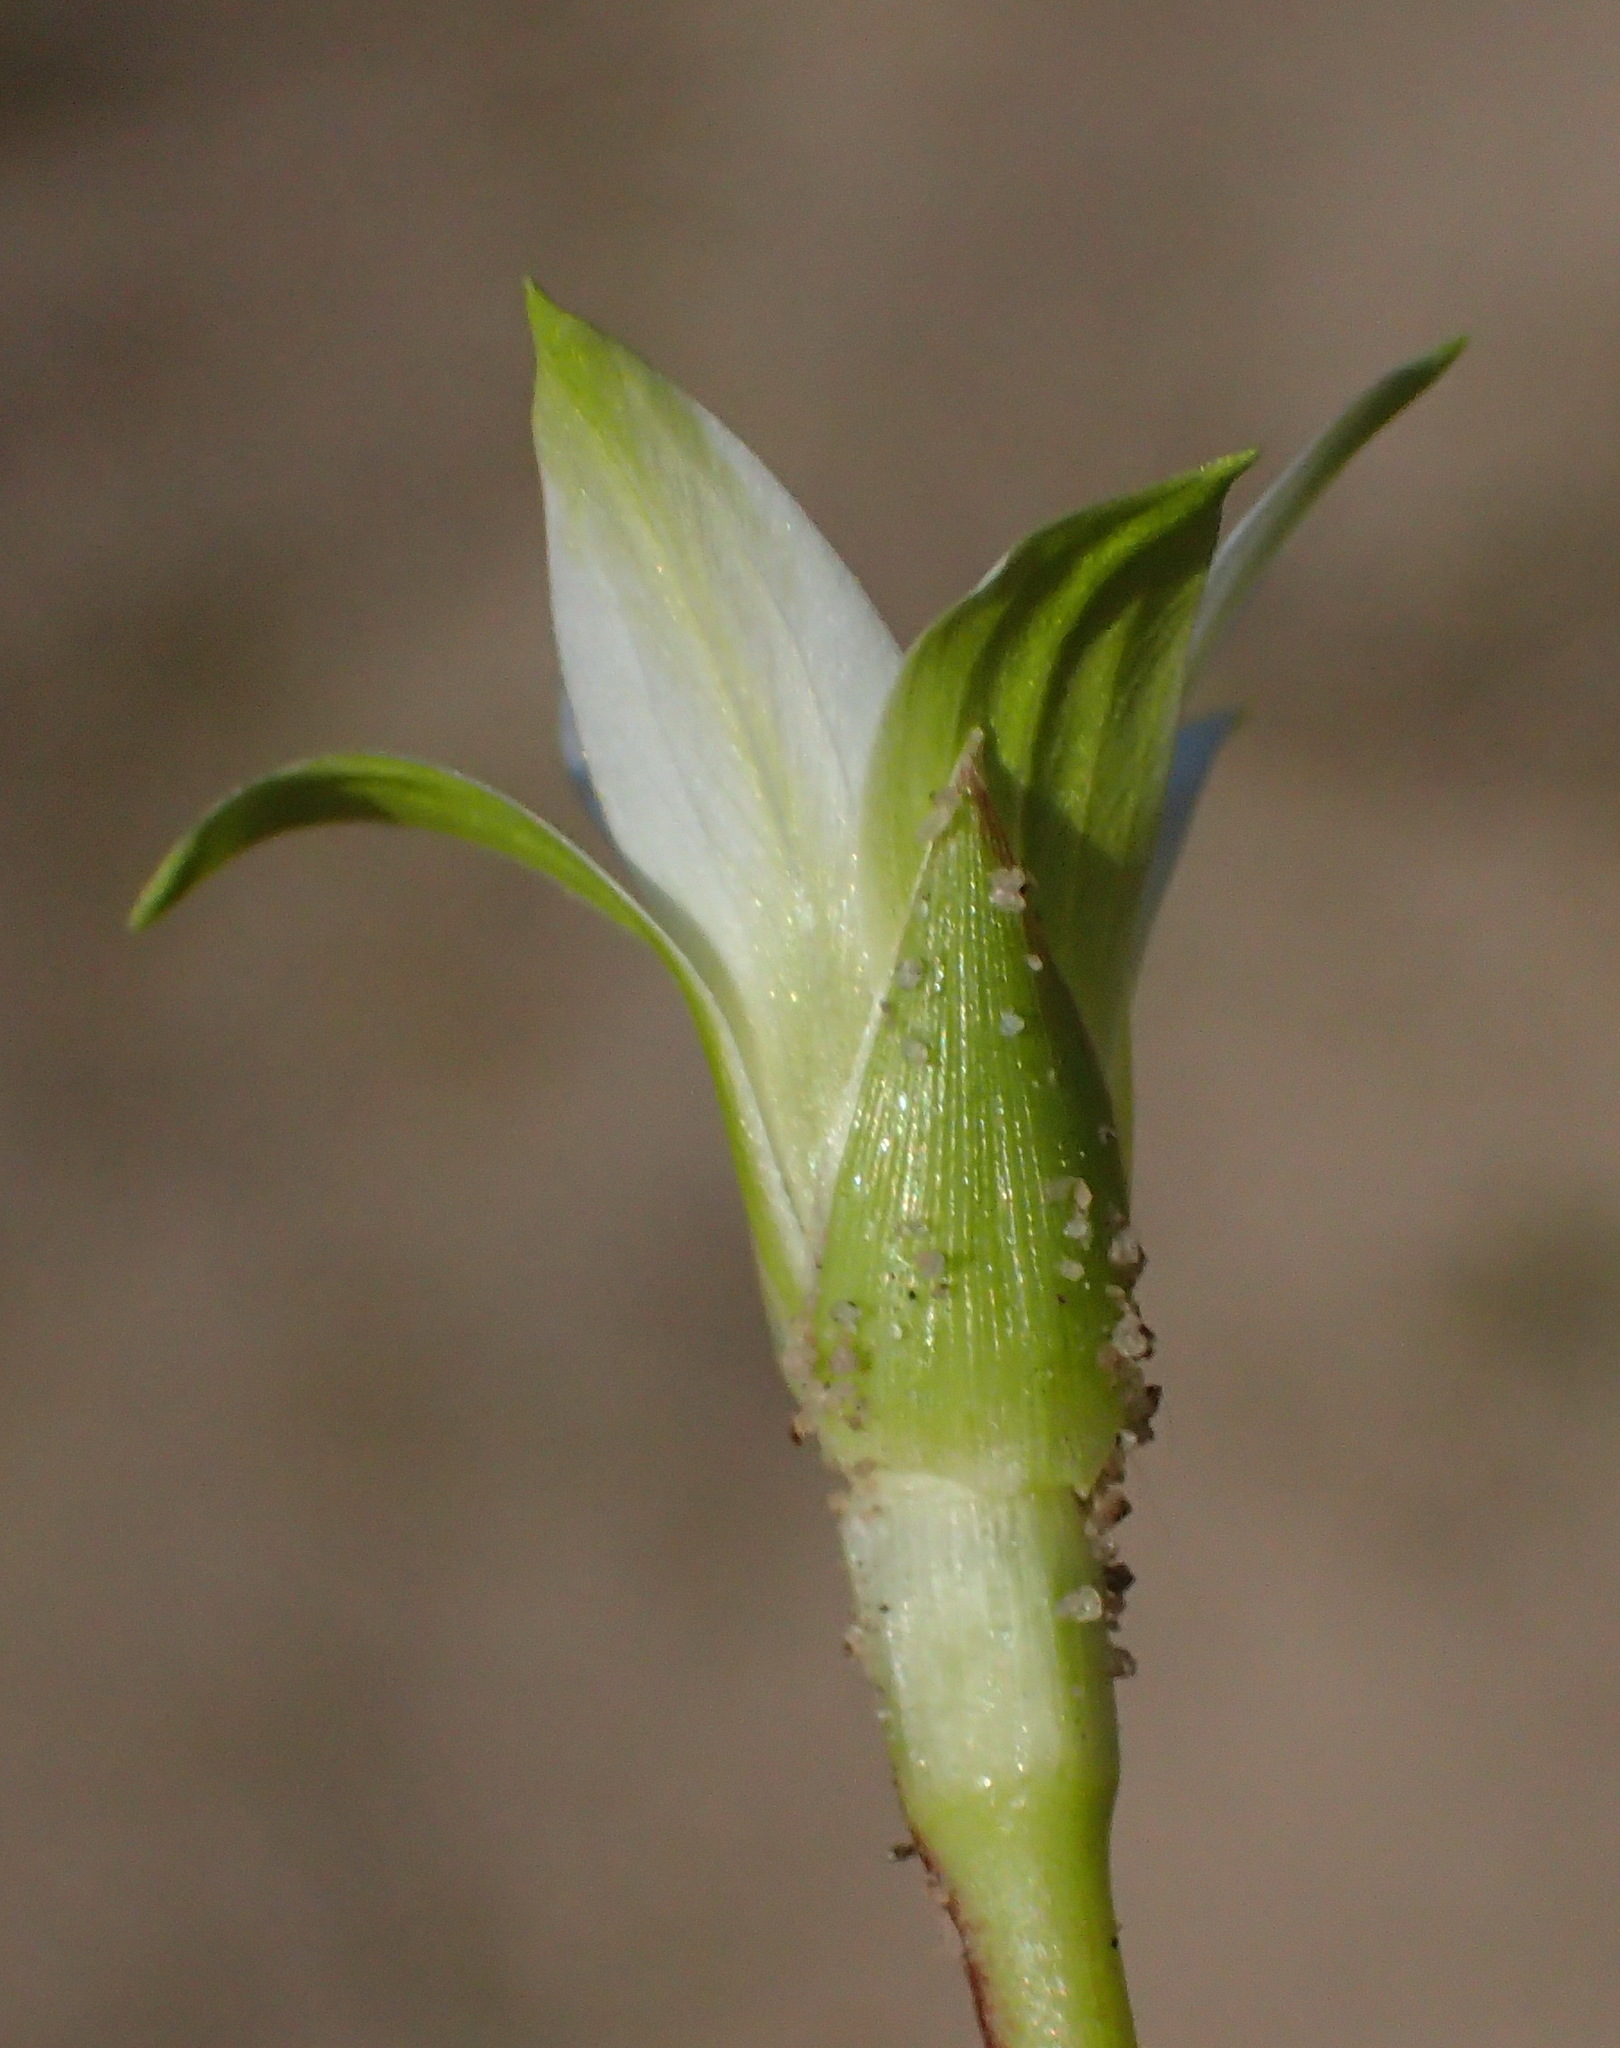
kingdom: Plantae
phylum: Tracheophyta
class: Liliopsida
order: Asparagales
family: Iridaceae
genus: Romulea
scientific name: Romulea flava
